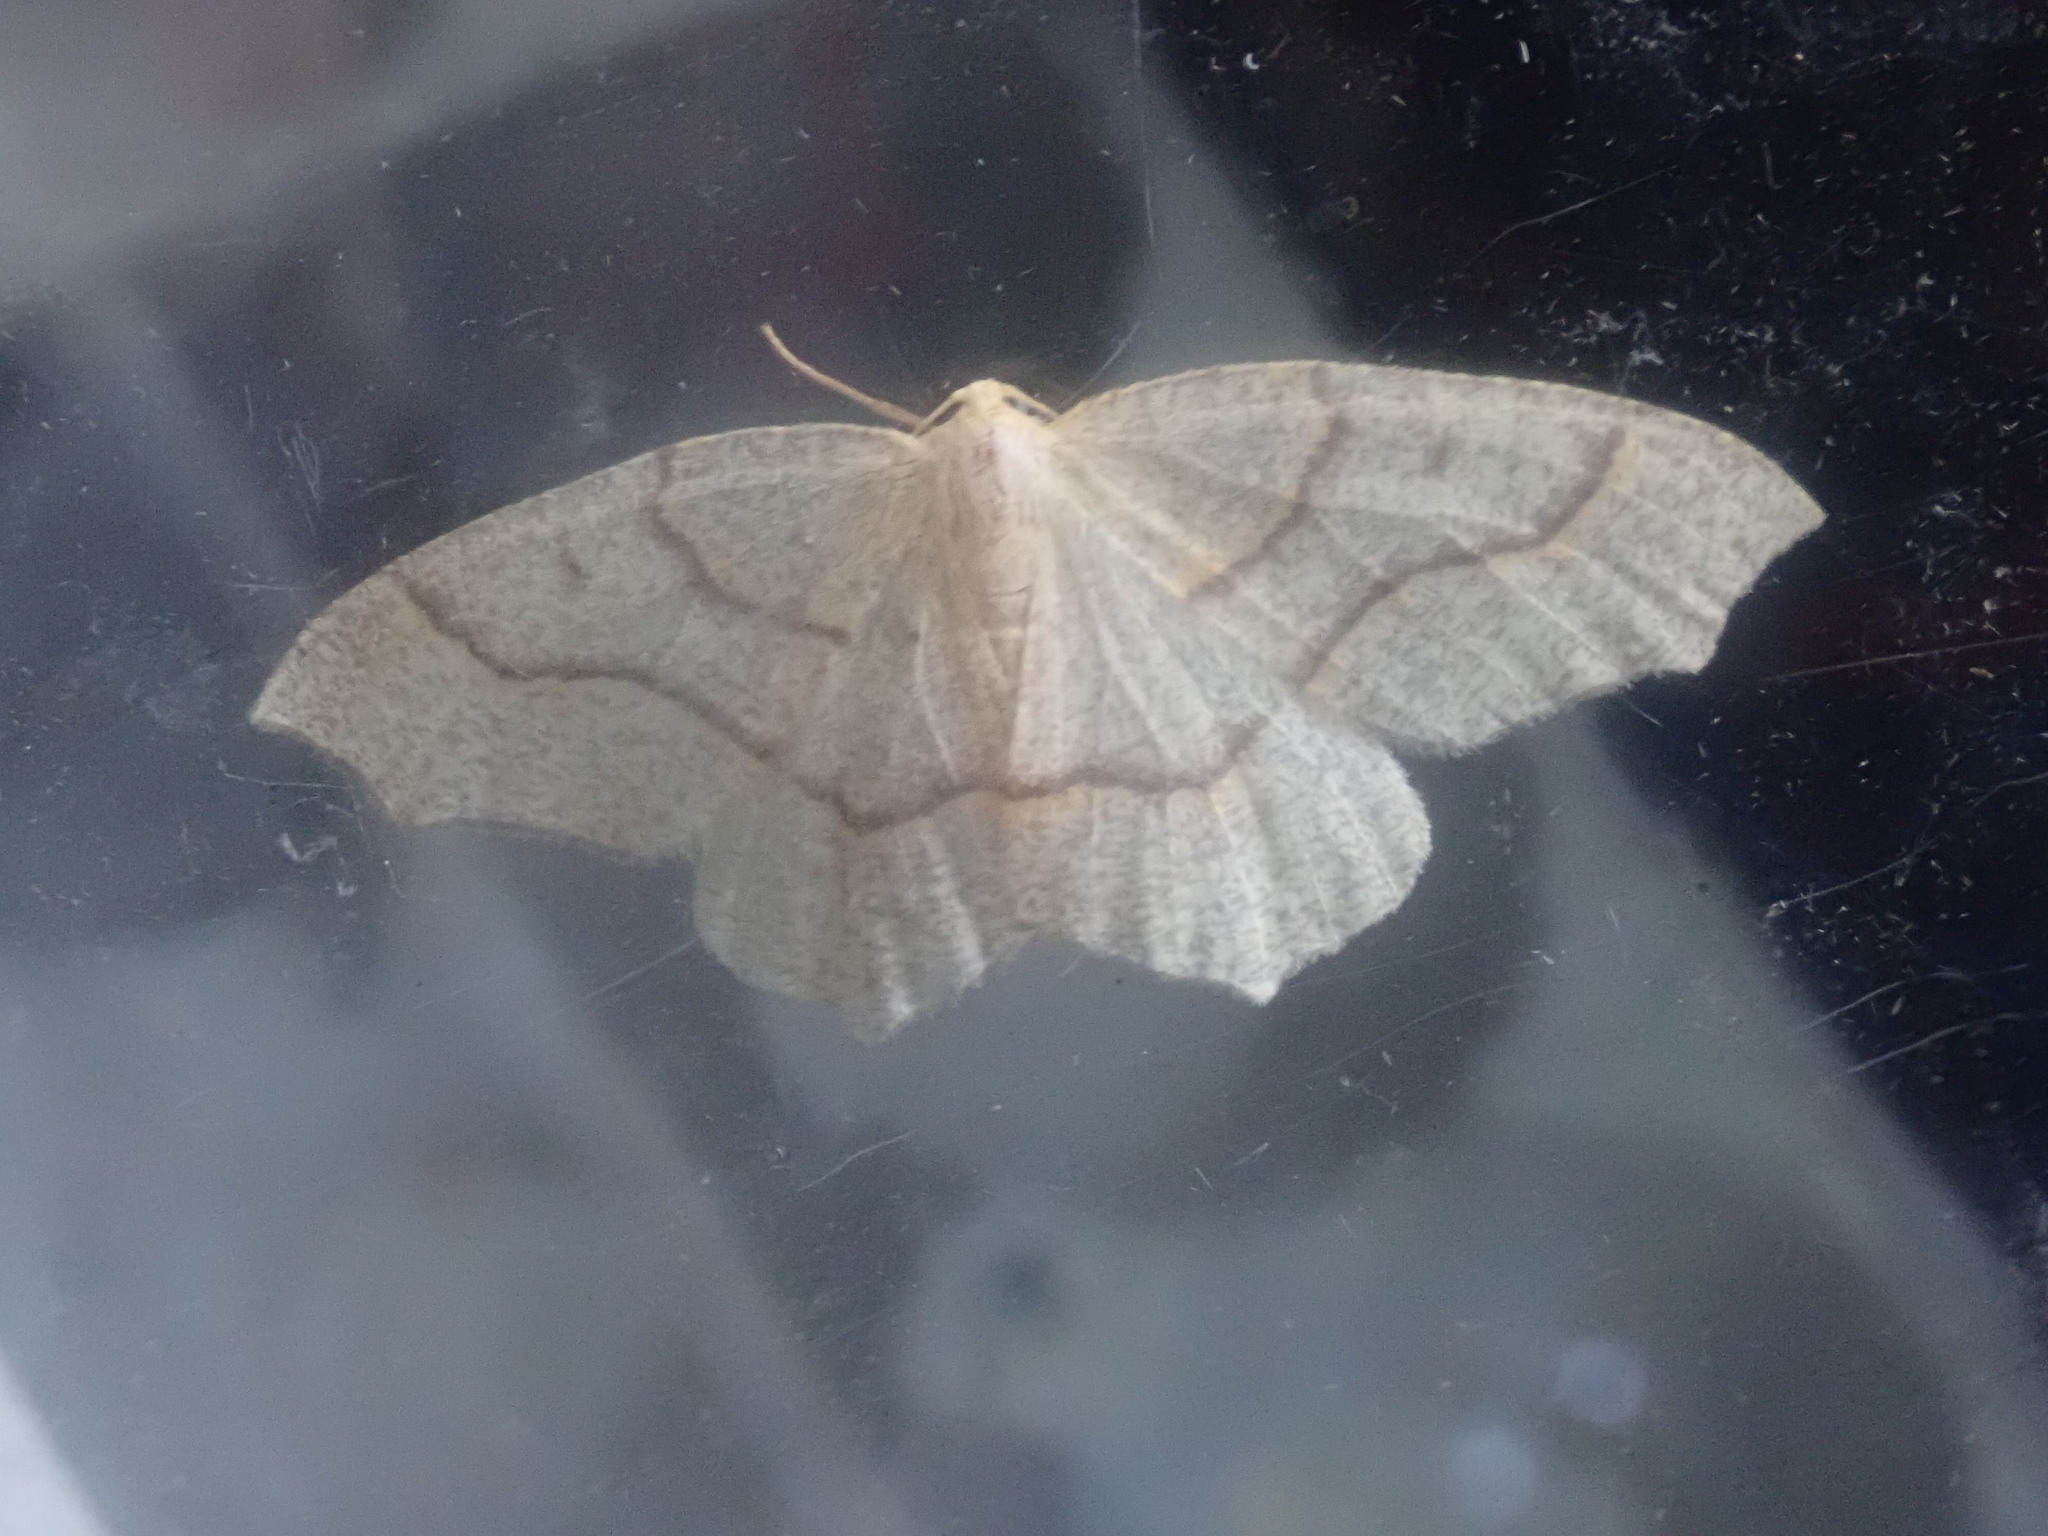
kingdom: Animalia
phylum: Arthropoda
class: Insecta
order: Lepidoptera
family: Geometridae
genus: Lambdina
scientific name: Lambdina fiscellaria
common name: Hemlock looper
